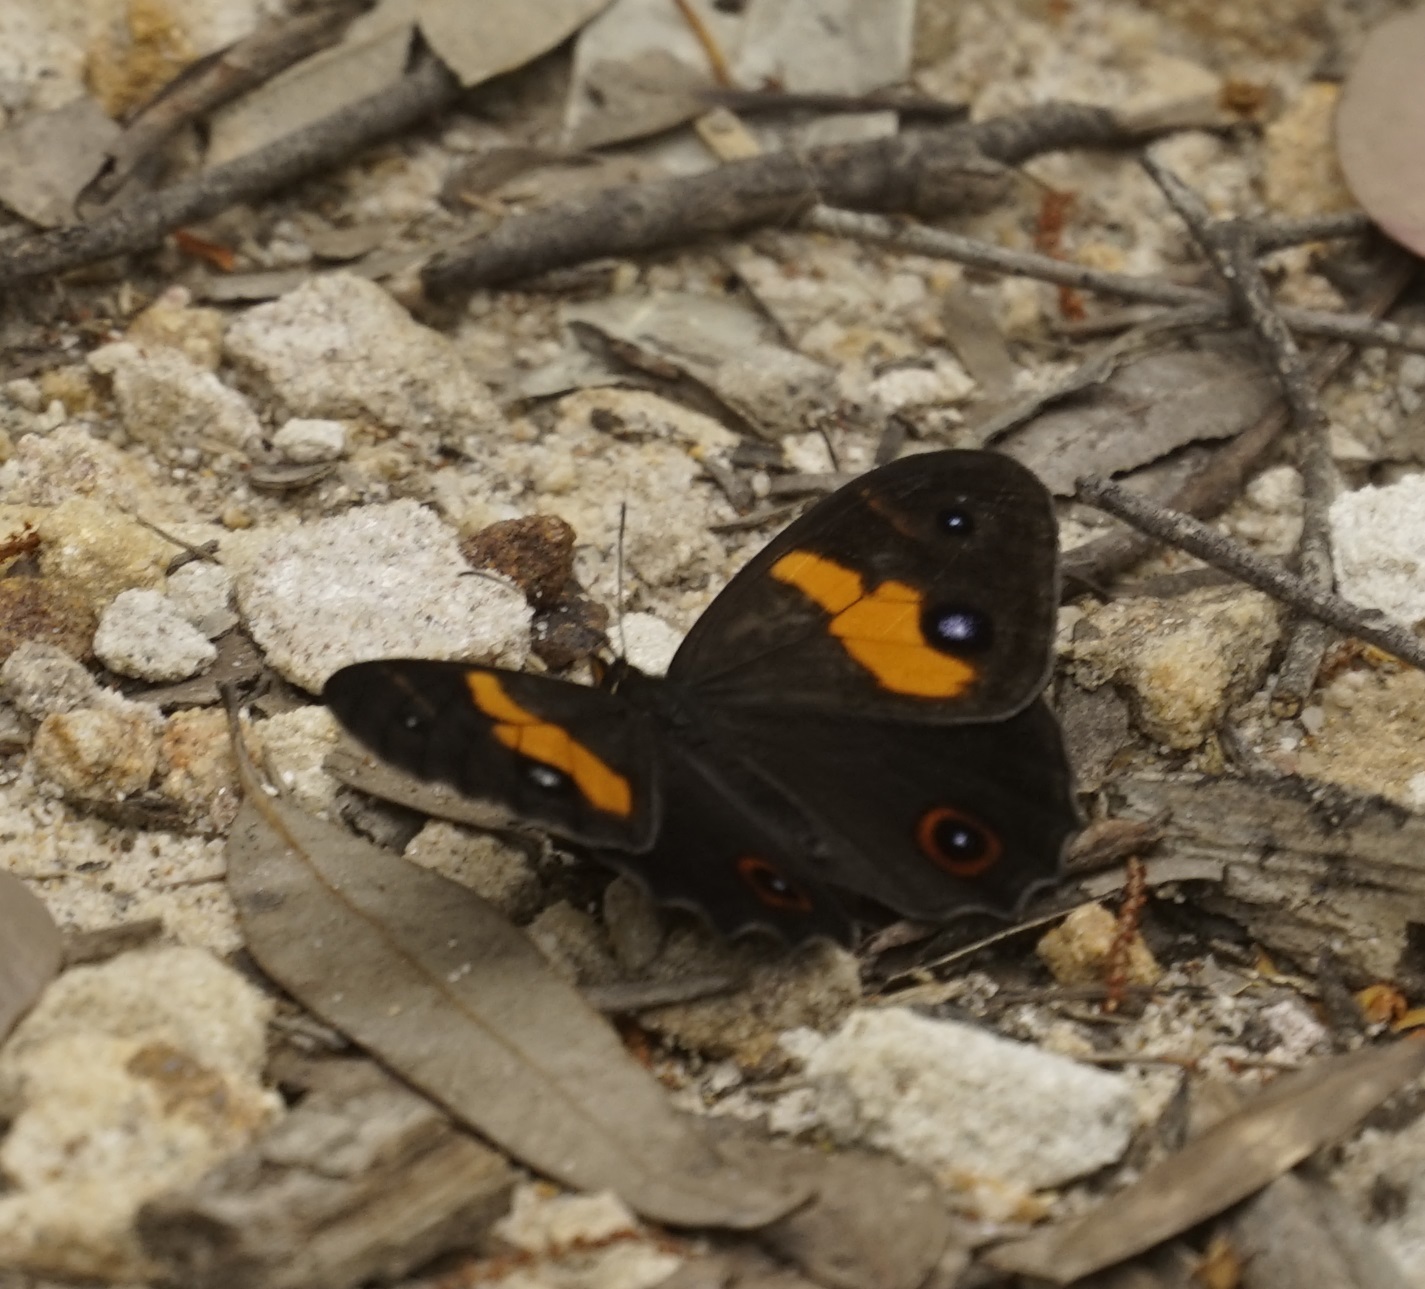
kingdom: Animalia
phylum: Arthropoda
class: Insecta
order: Lepidoptera
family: Nymphalidae
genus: Tisiphone
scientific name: Tisiphone abeona
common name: Swordgrass brown
